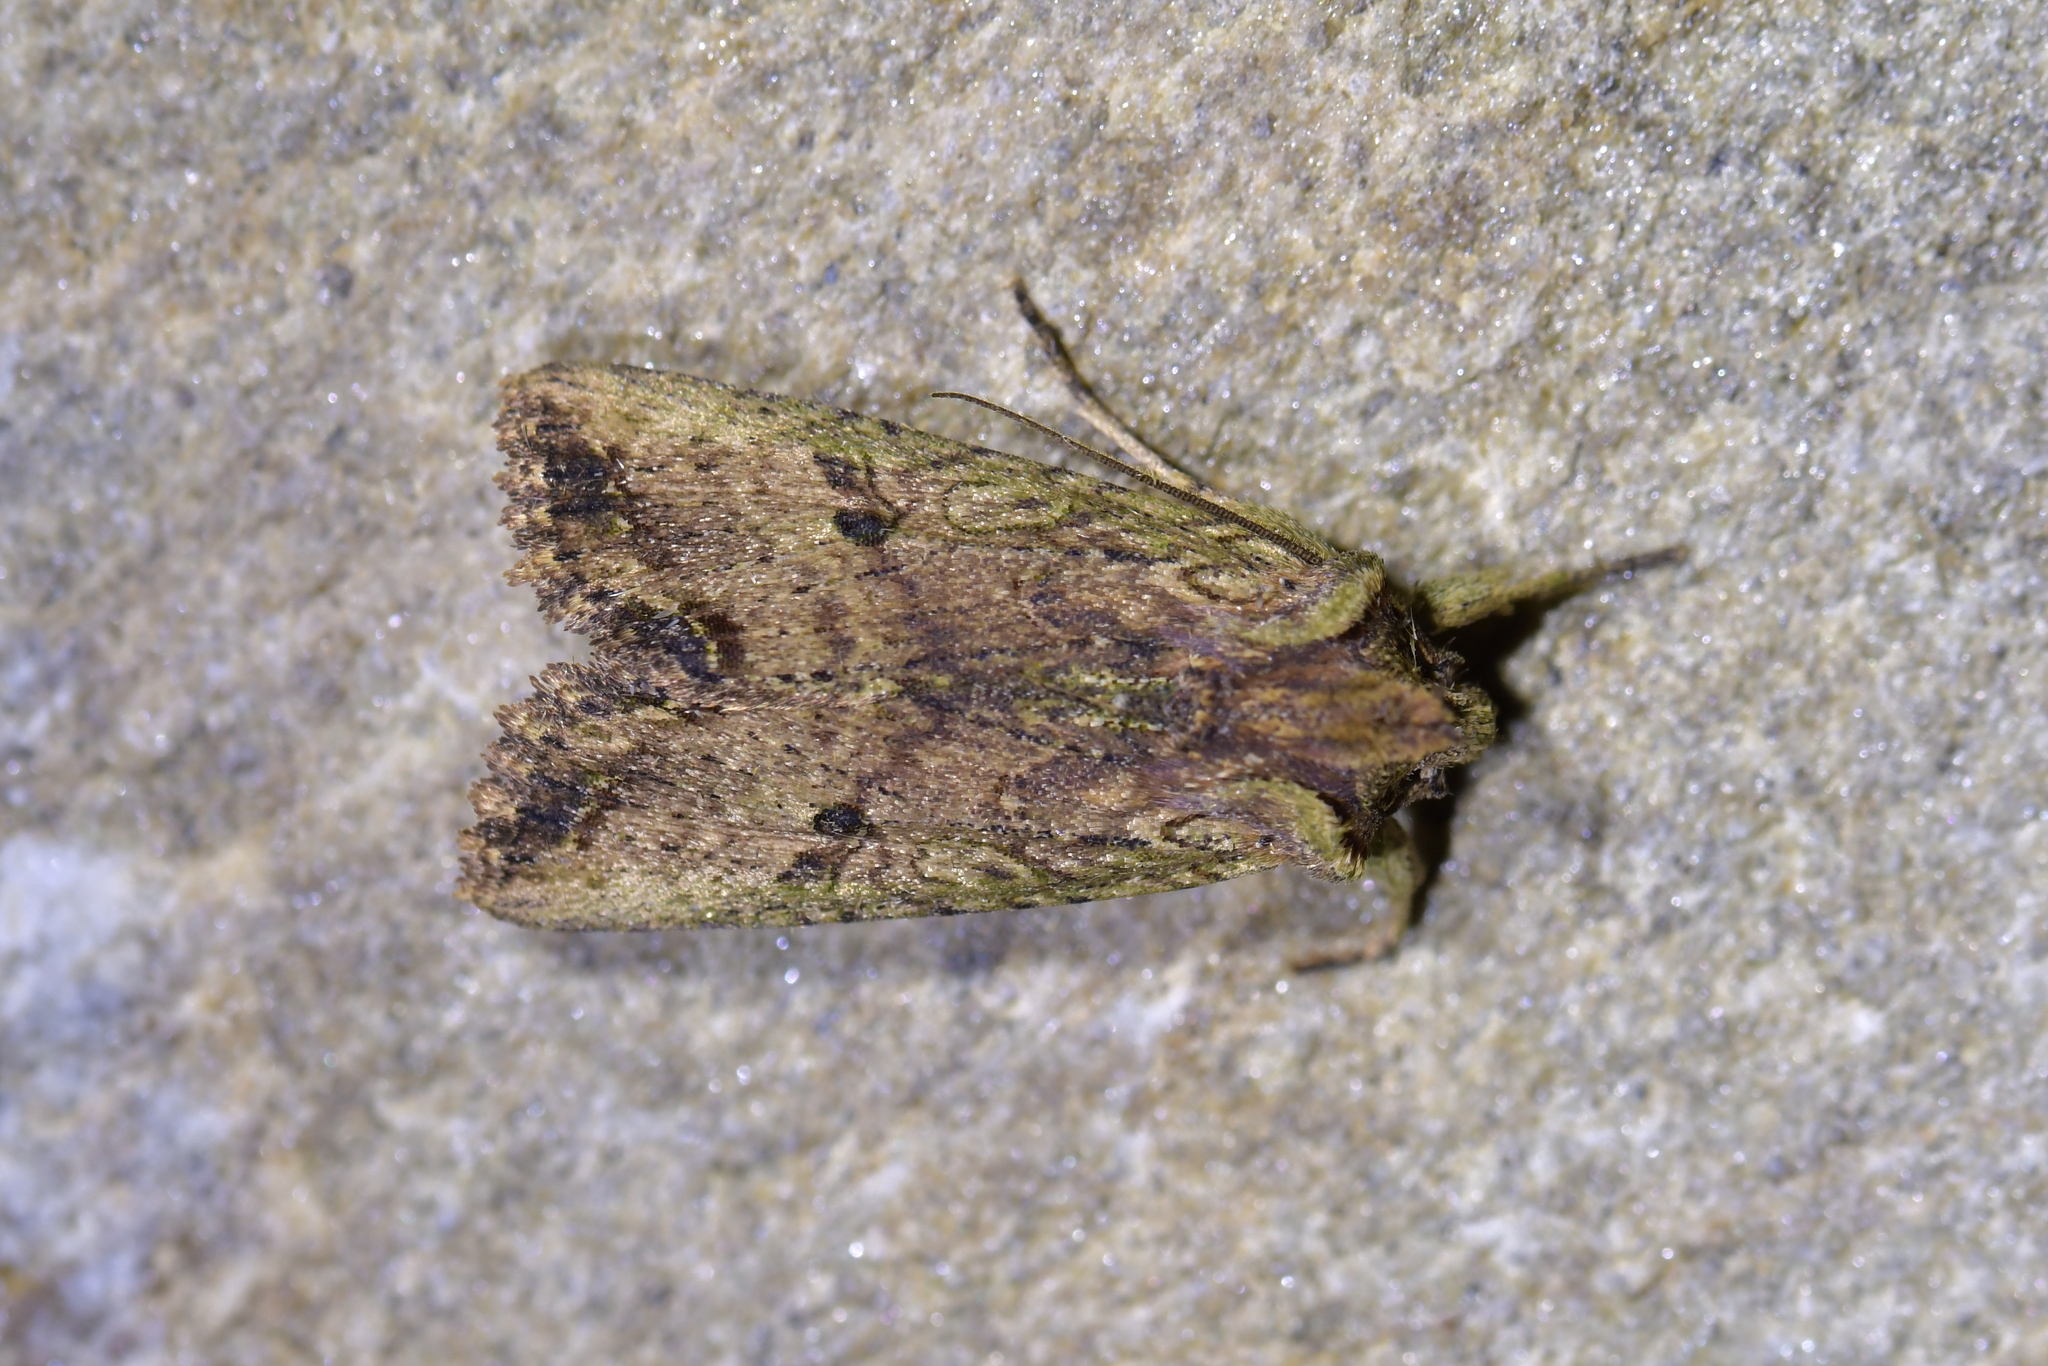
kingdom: Animalia
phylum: Arthropoda
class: Insecta
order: Lepidoptera
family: Noctuidae
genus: Meterana
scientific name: Meterana coeleno
